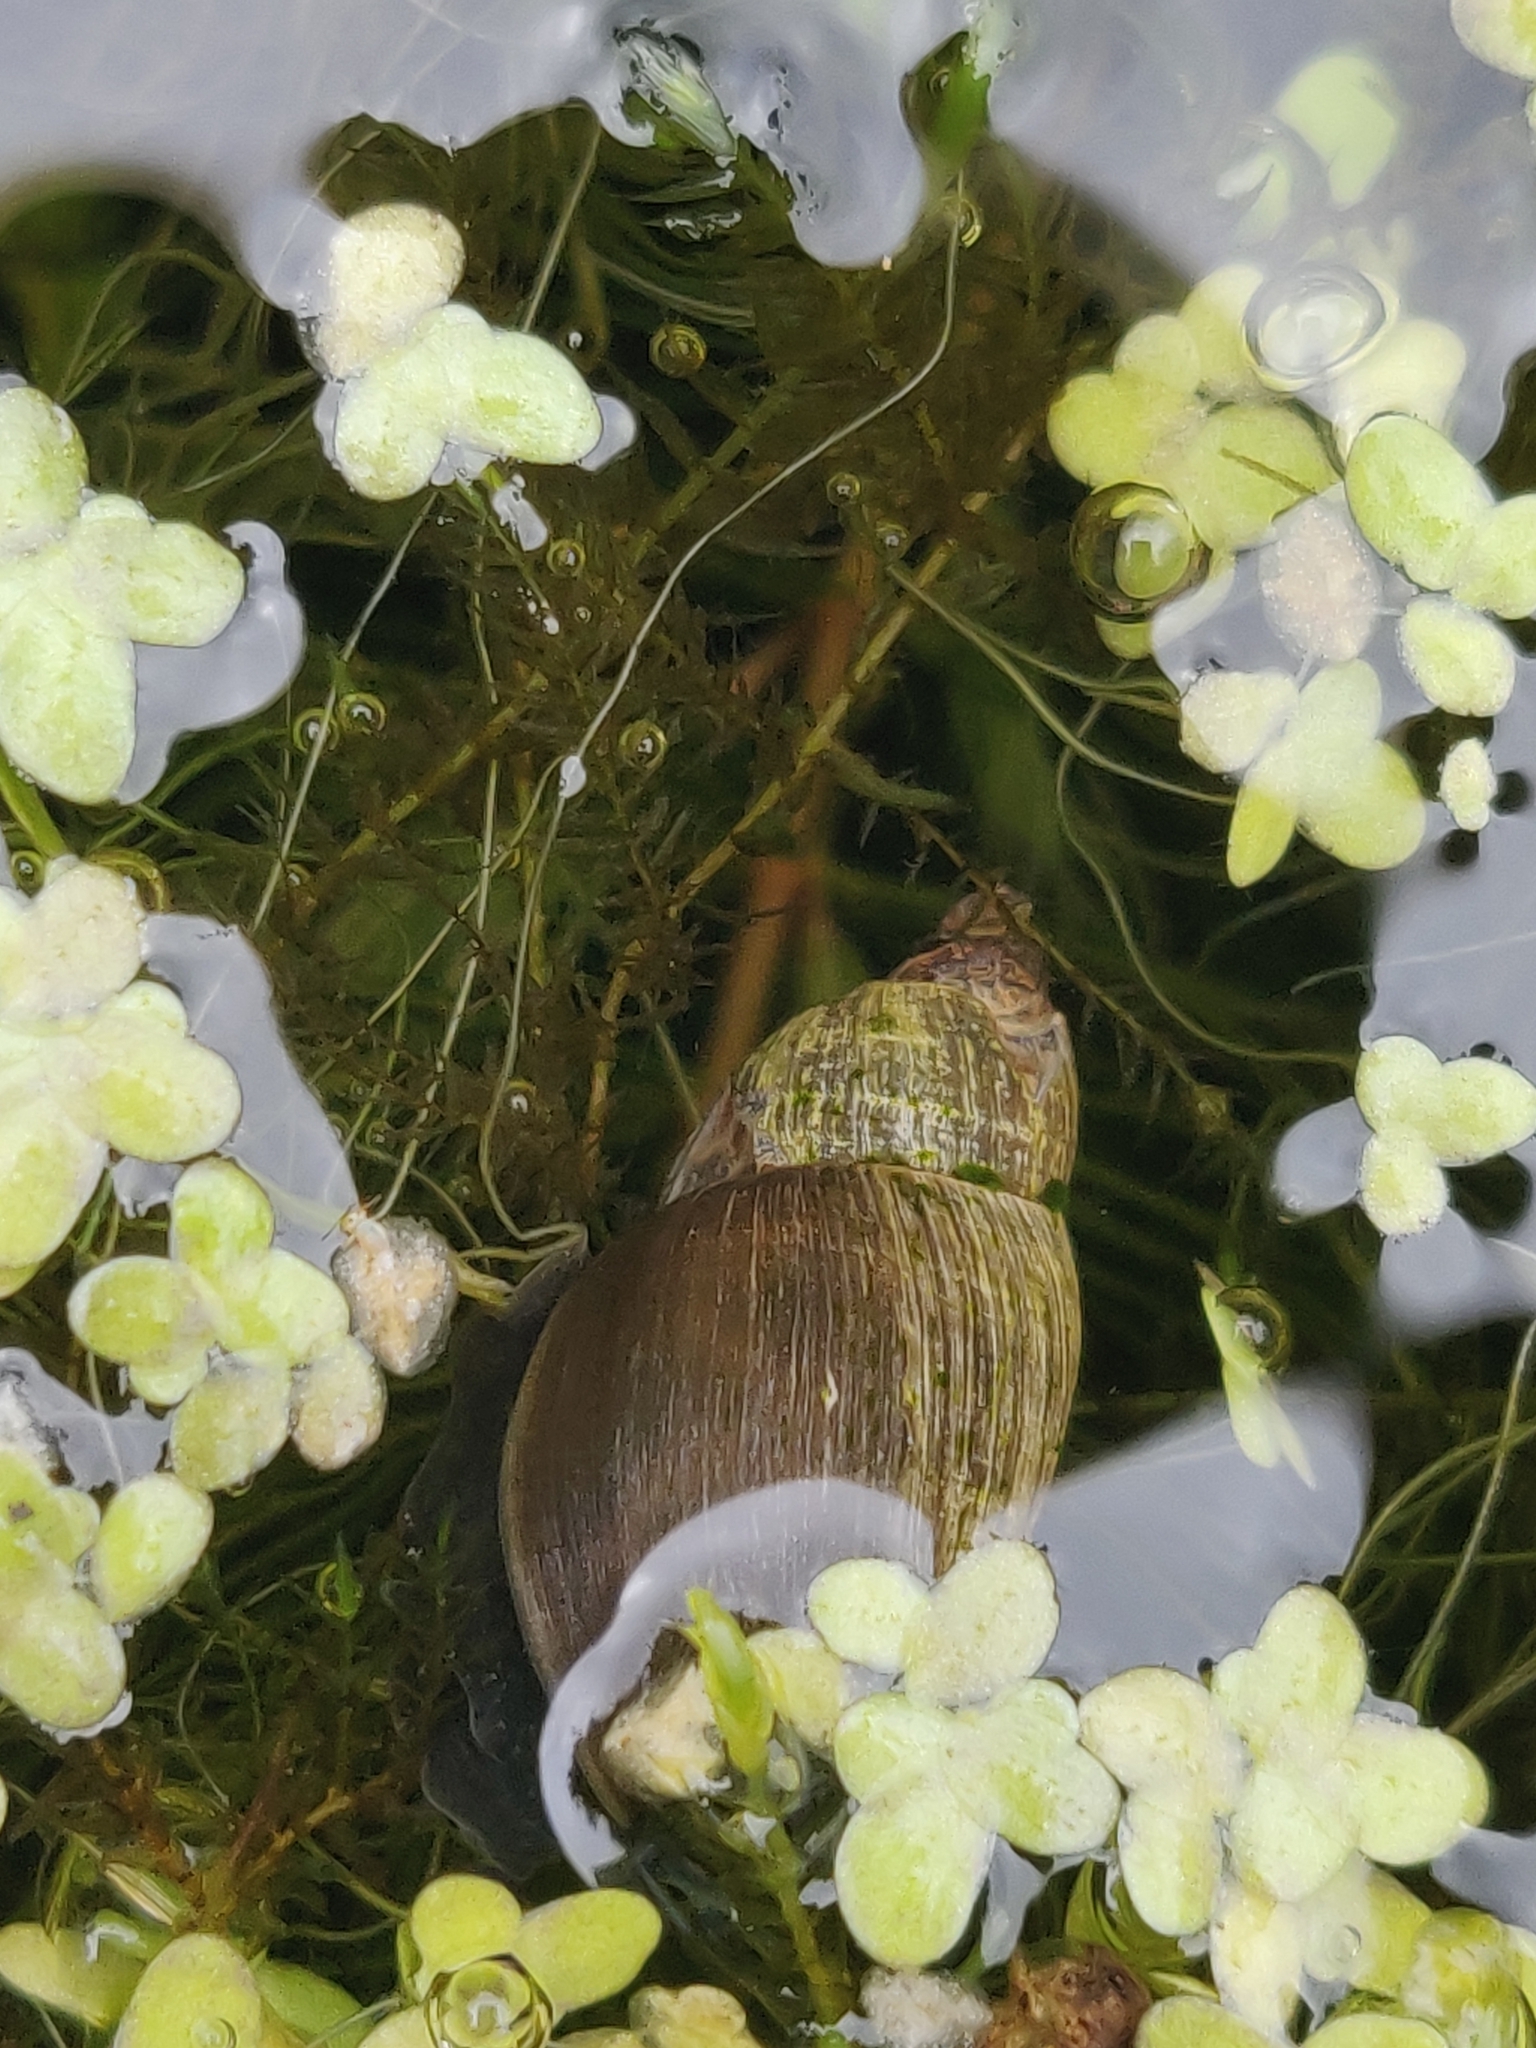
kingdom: Animalia
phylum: Mollusca
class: Gastropoda
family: Lymnaeidae
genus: Lymnaea
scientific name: Lymnaea stagnalis
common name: Great pond snail
